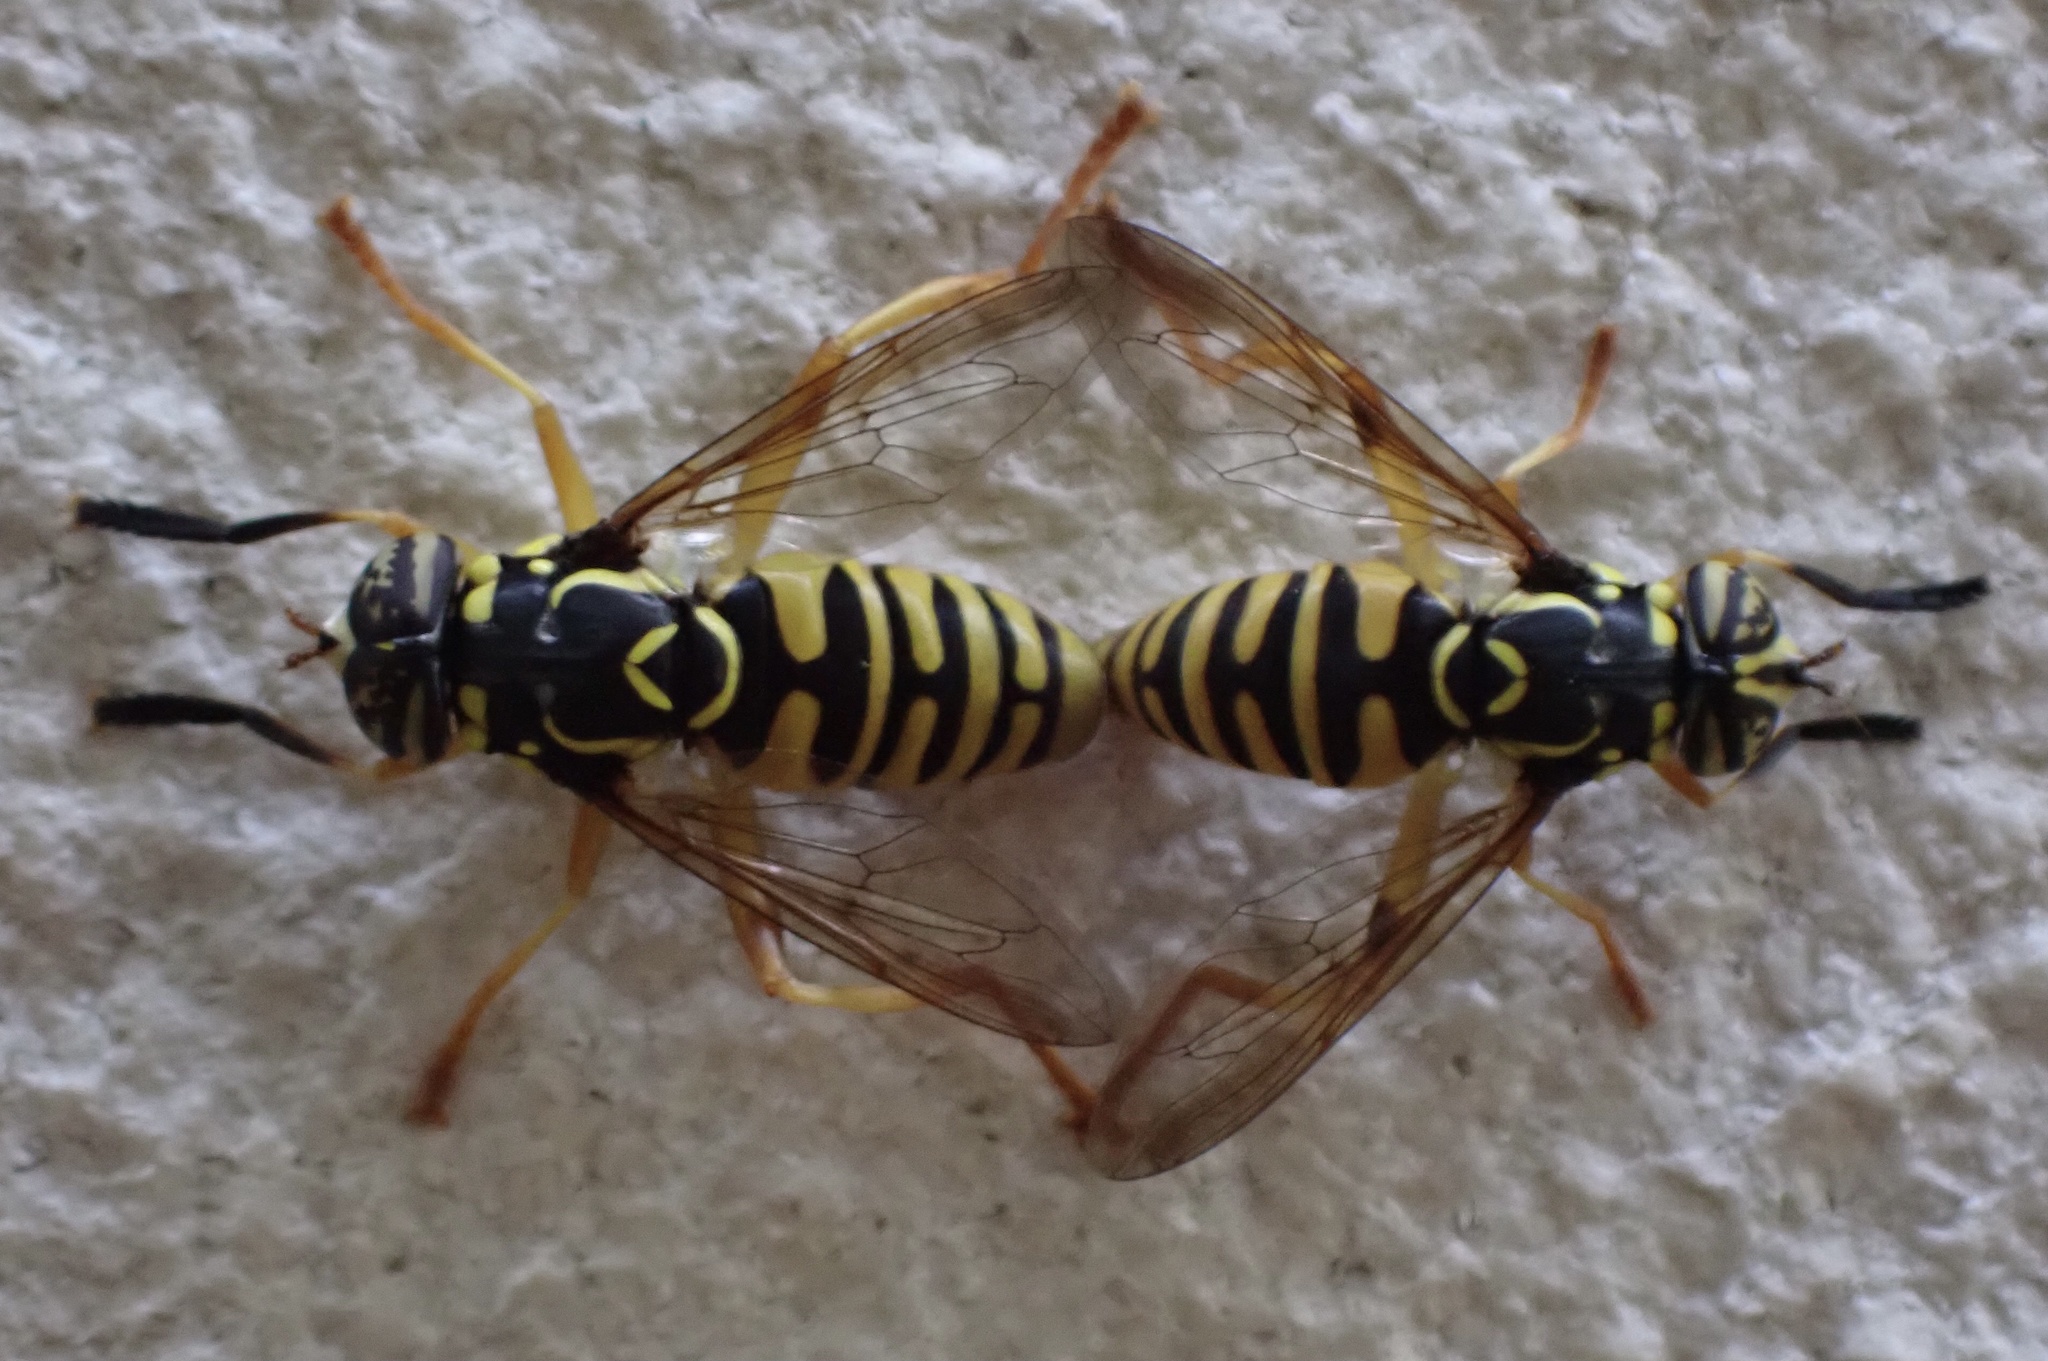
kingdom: Animalia
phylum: Arthropoda
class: Insecta
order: Diptera
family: Syrphidae
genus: Spilomyia
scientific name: Spilomyia graciosa
